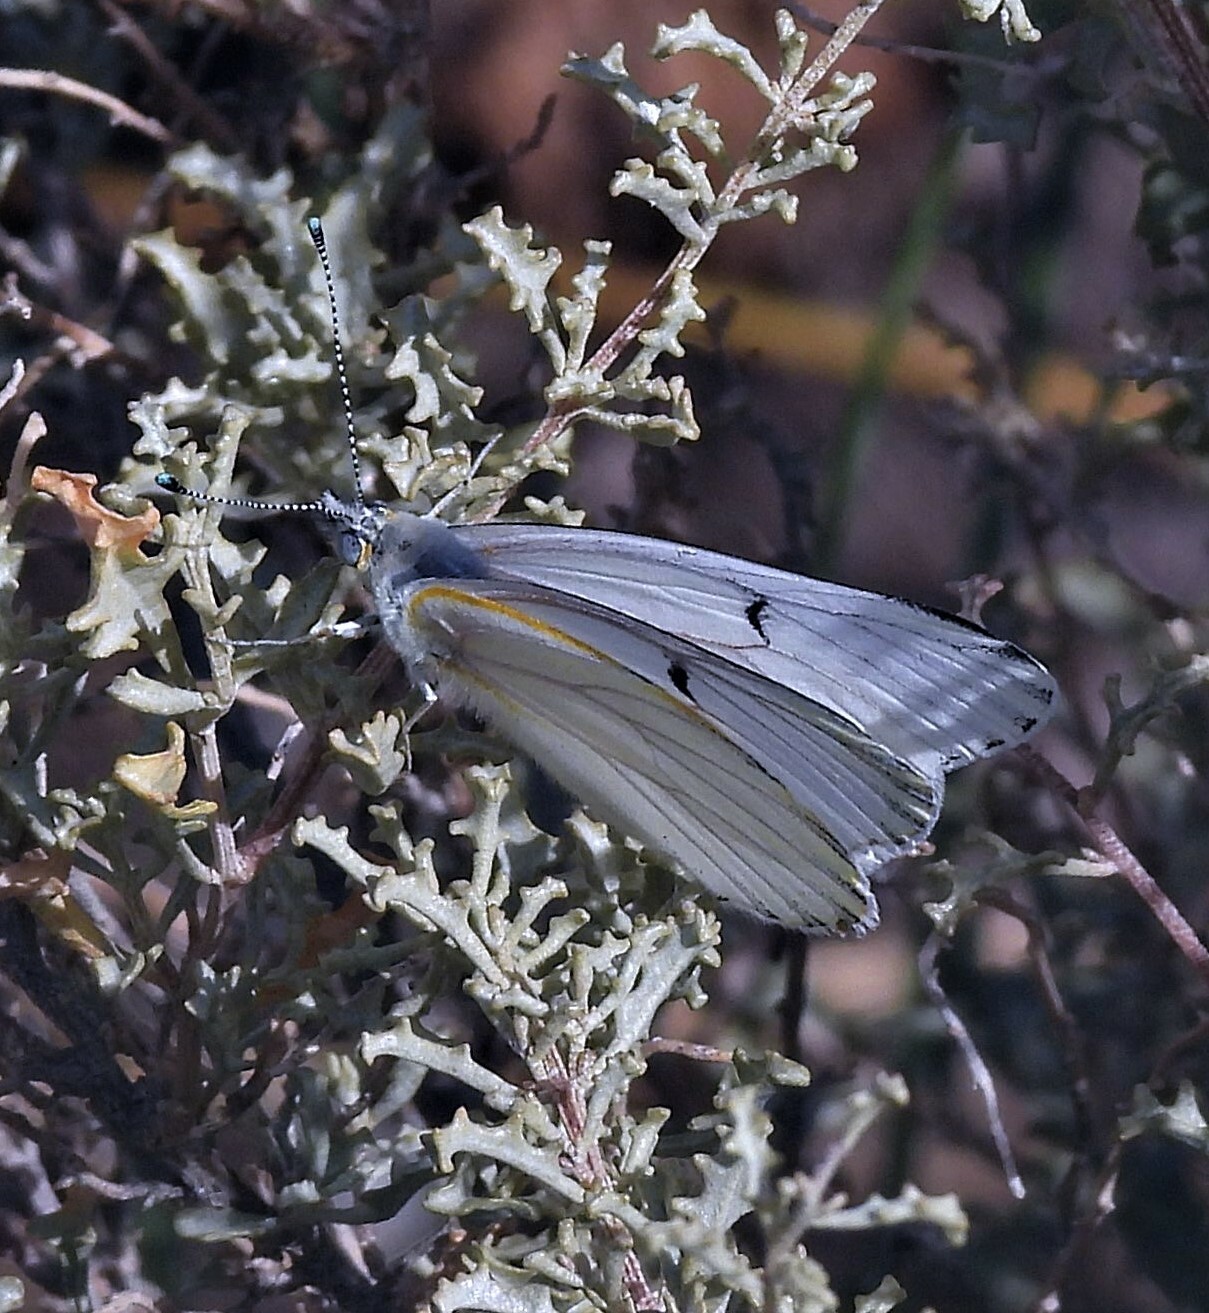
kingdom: Animalia
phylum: Arthropoda
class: Insecta
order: Lepidoptera
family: Pieridae
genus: Tatochila
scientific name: Tatochila mercedis
